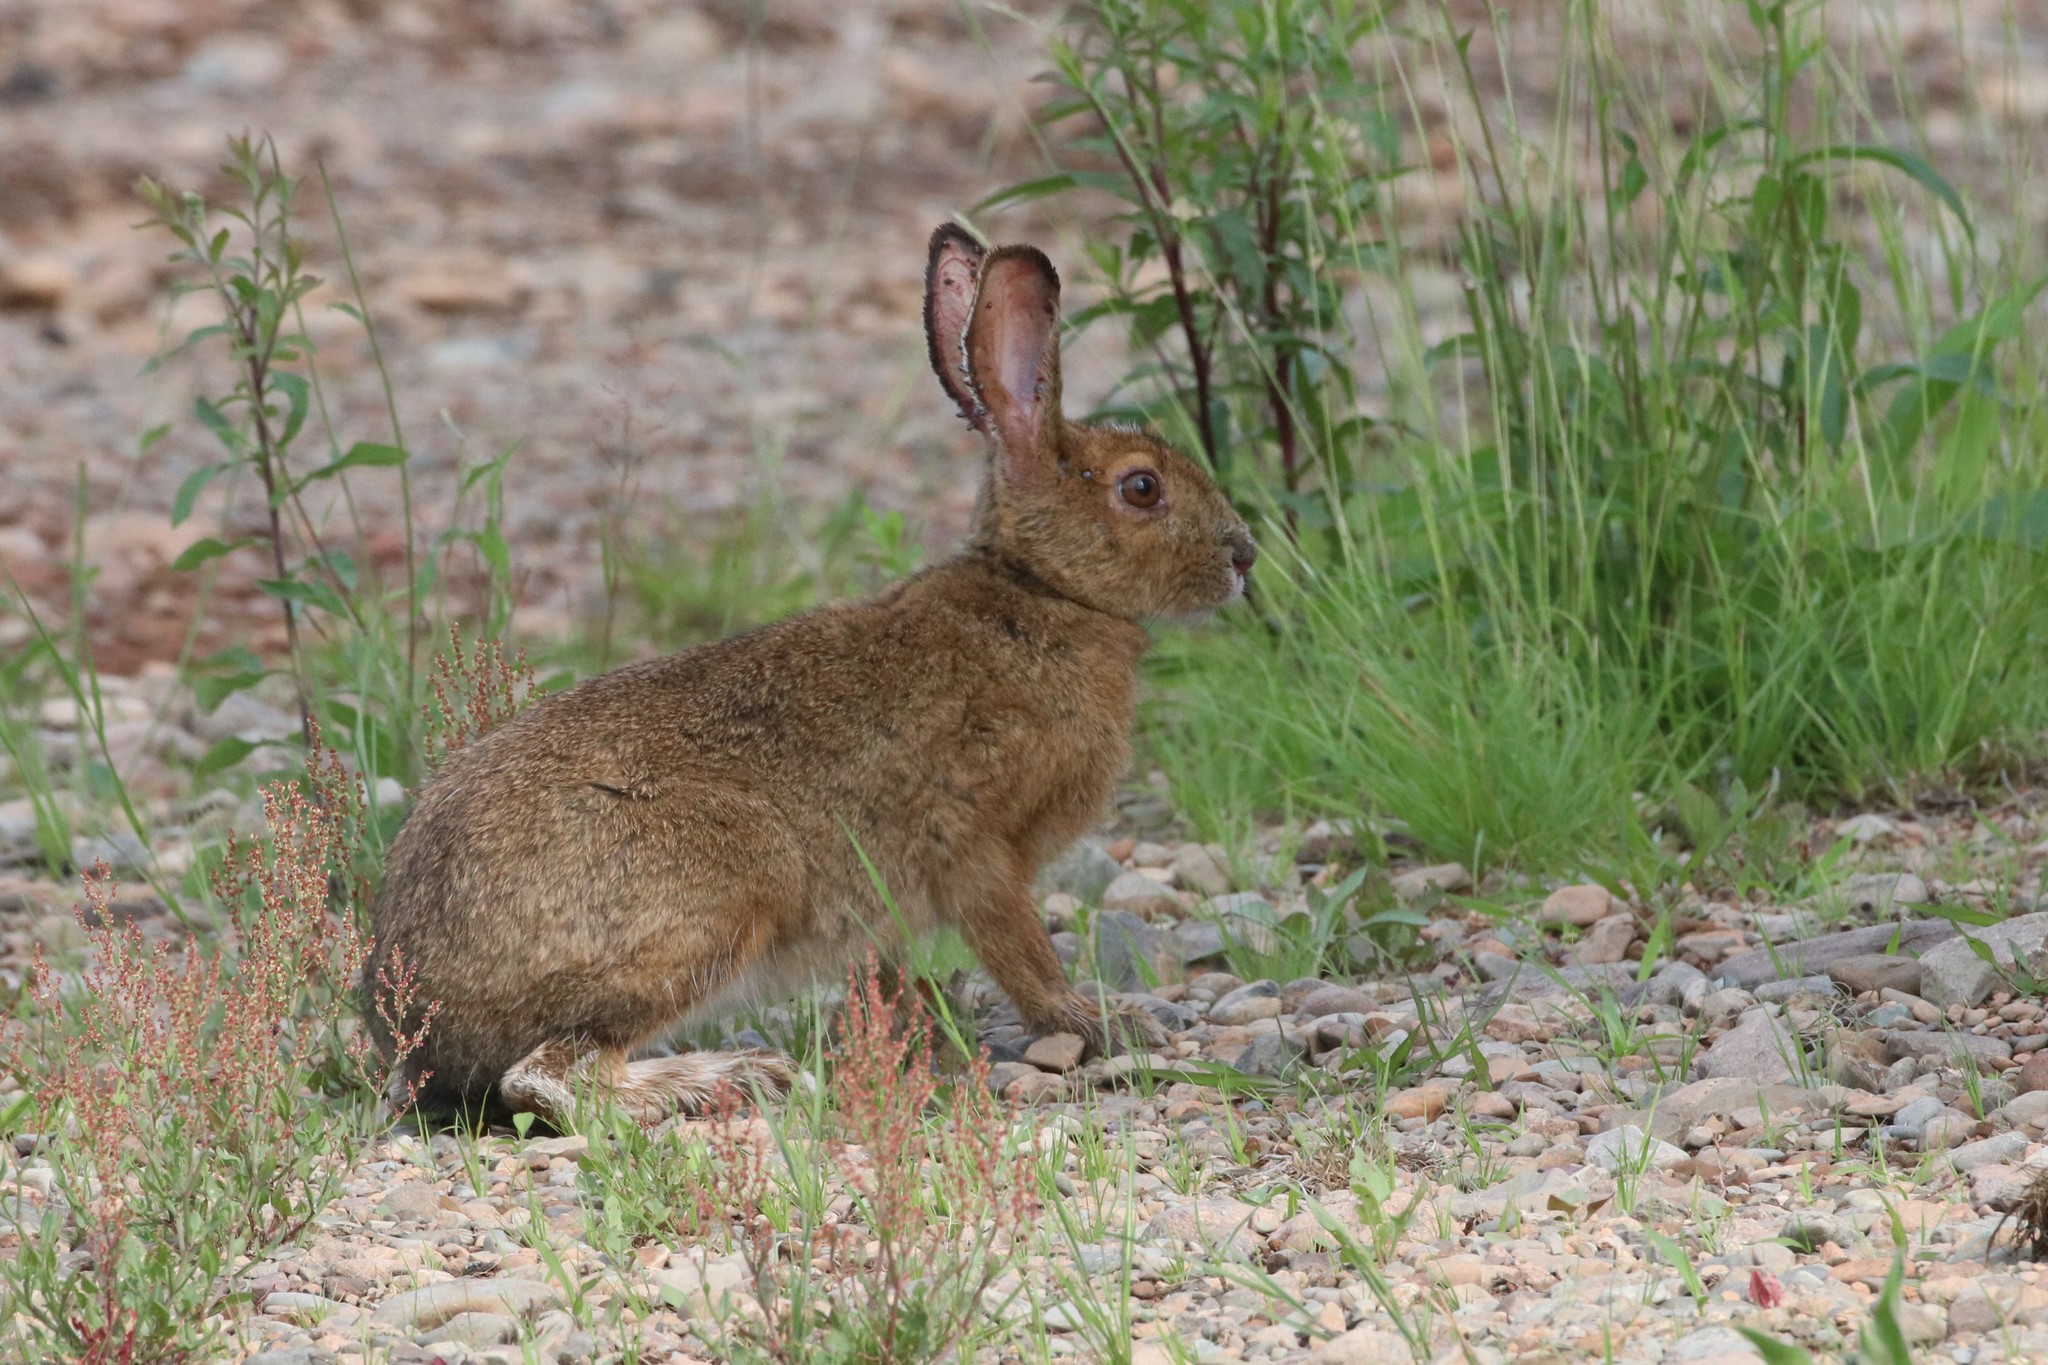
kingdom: Animalia
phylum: Chordata
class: Mammalia
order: Lagomorpha
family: Leporidae
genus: Lepus
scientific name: Lepus americanus
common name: Snowshoe hare
